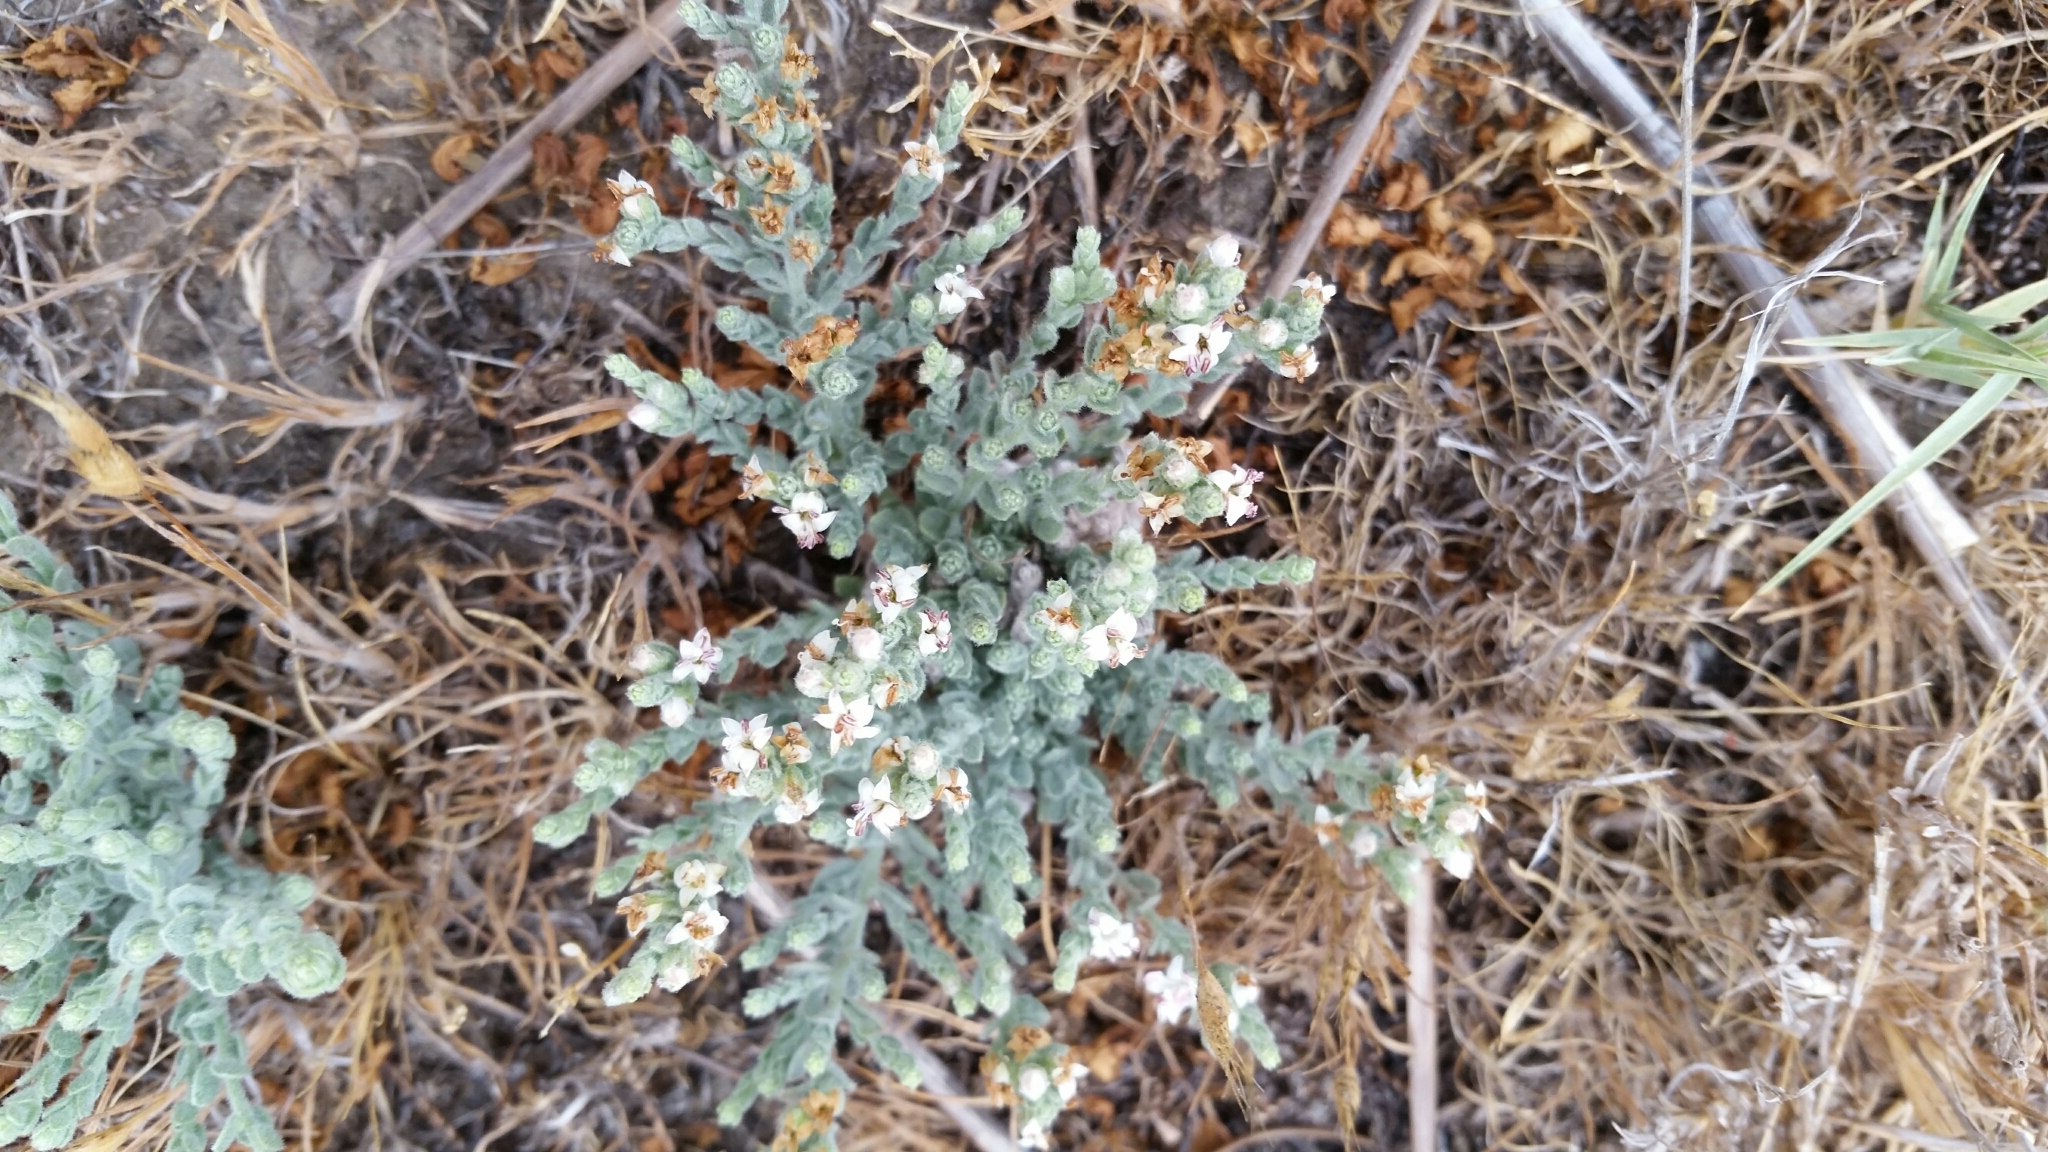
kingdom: Plantae
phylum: Tracheophyta
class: Magnoliopsida
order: Solanales
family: Convolvulaceae
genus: Cressa
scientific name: Cressa truxillensis
